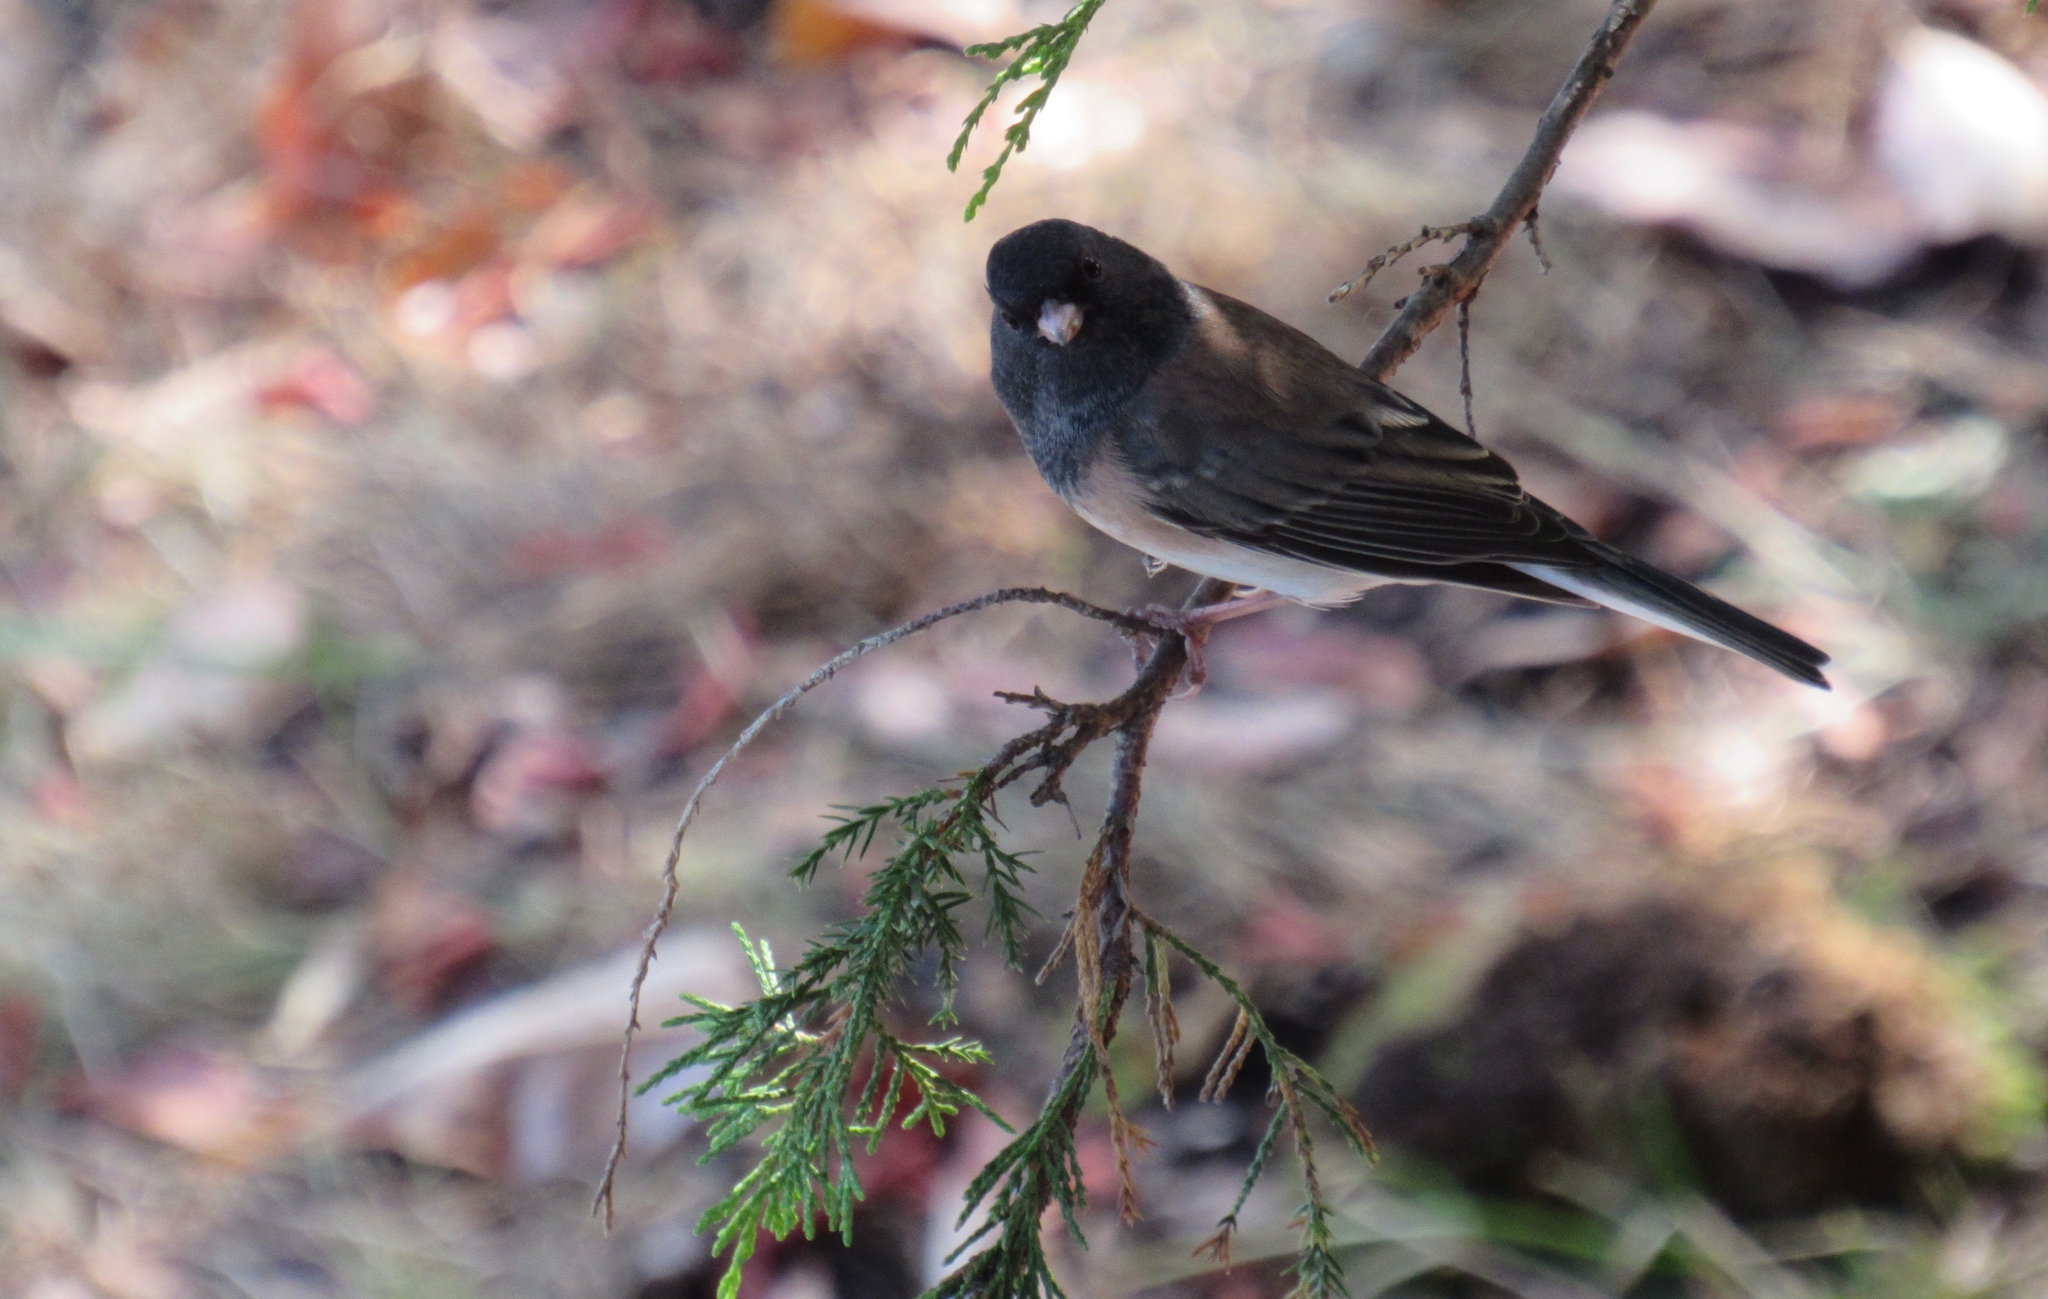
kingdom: Animalia
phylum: Chordata
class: Aves
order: Passeriformes
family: Passerellidae
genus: Junco
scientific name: Junco hyemalis
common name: Dark-eyed junco
